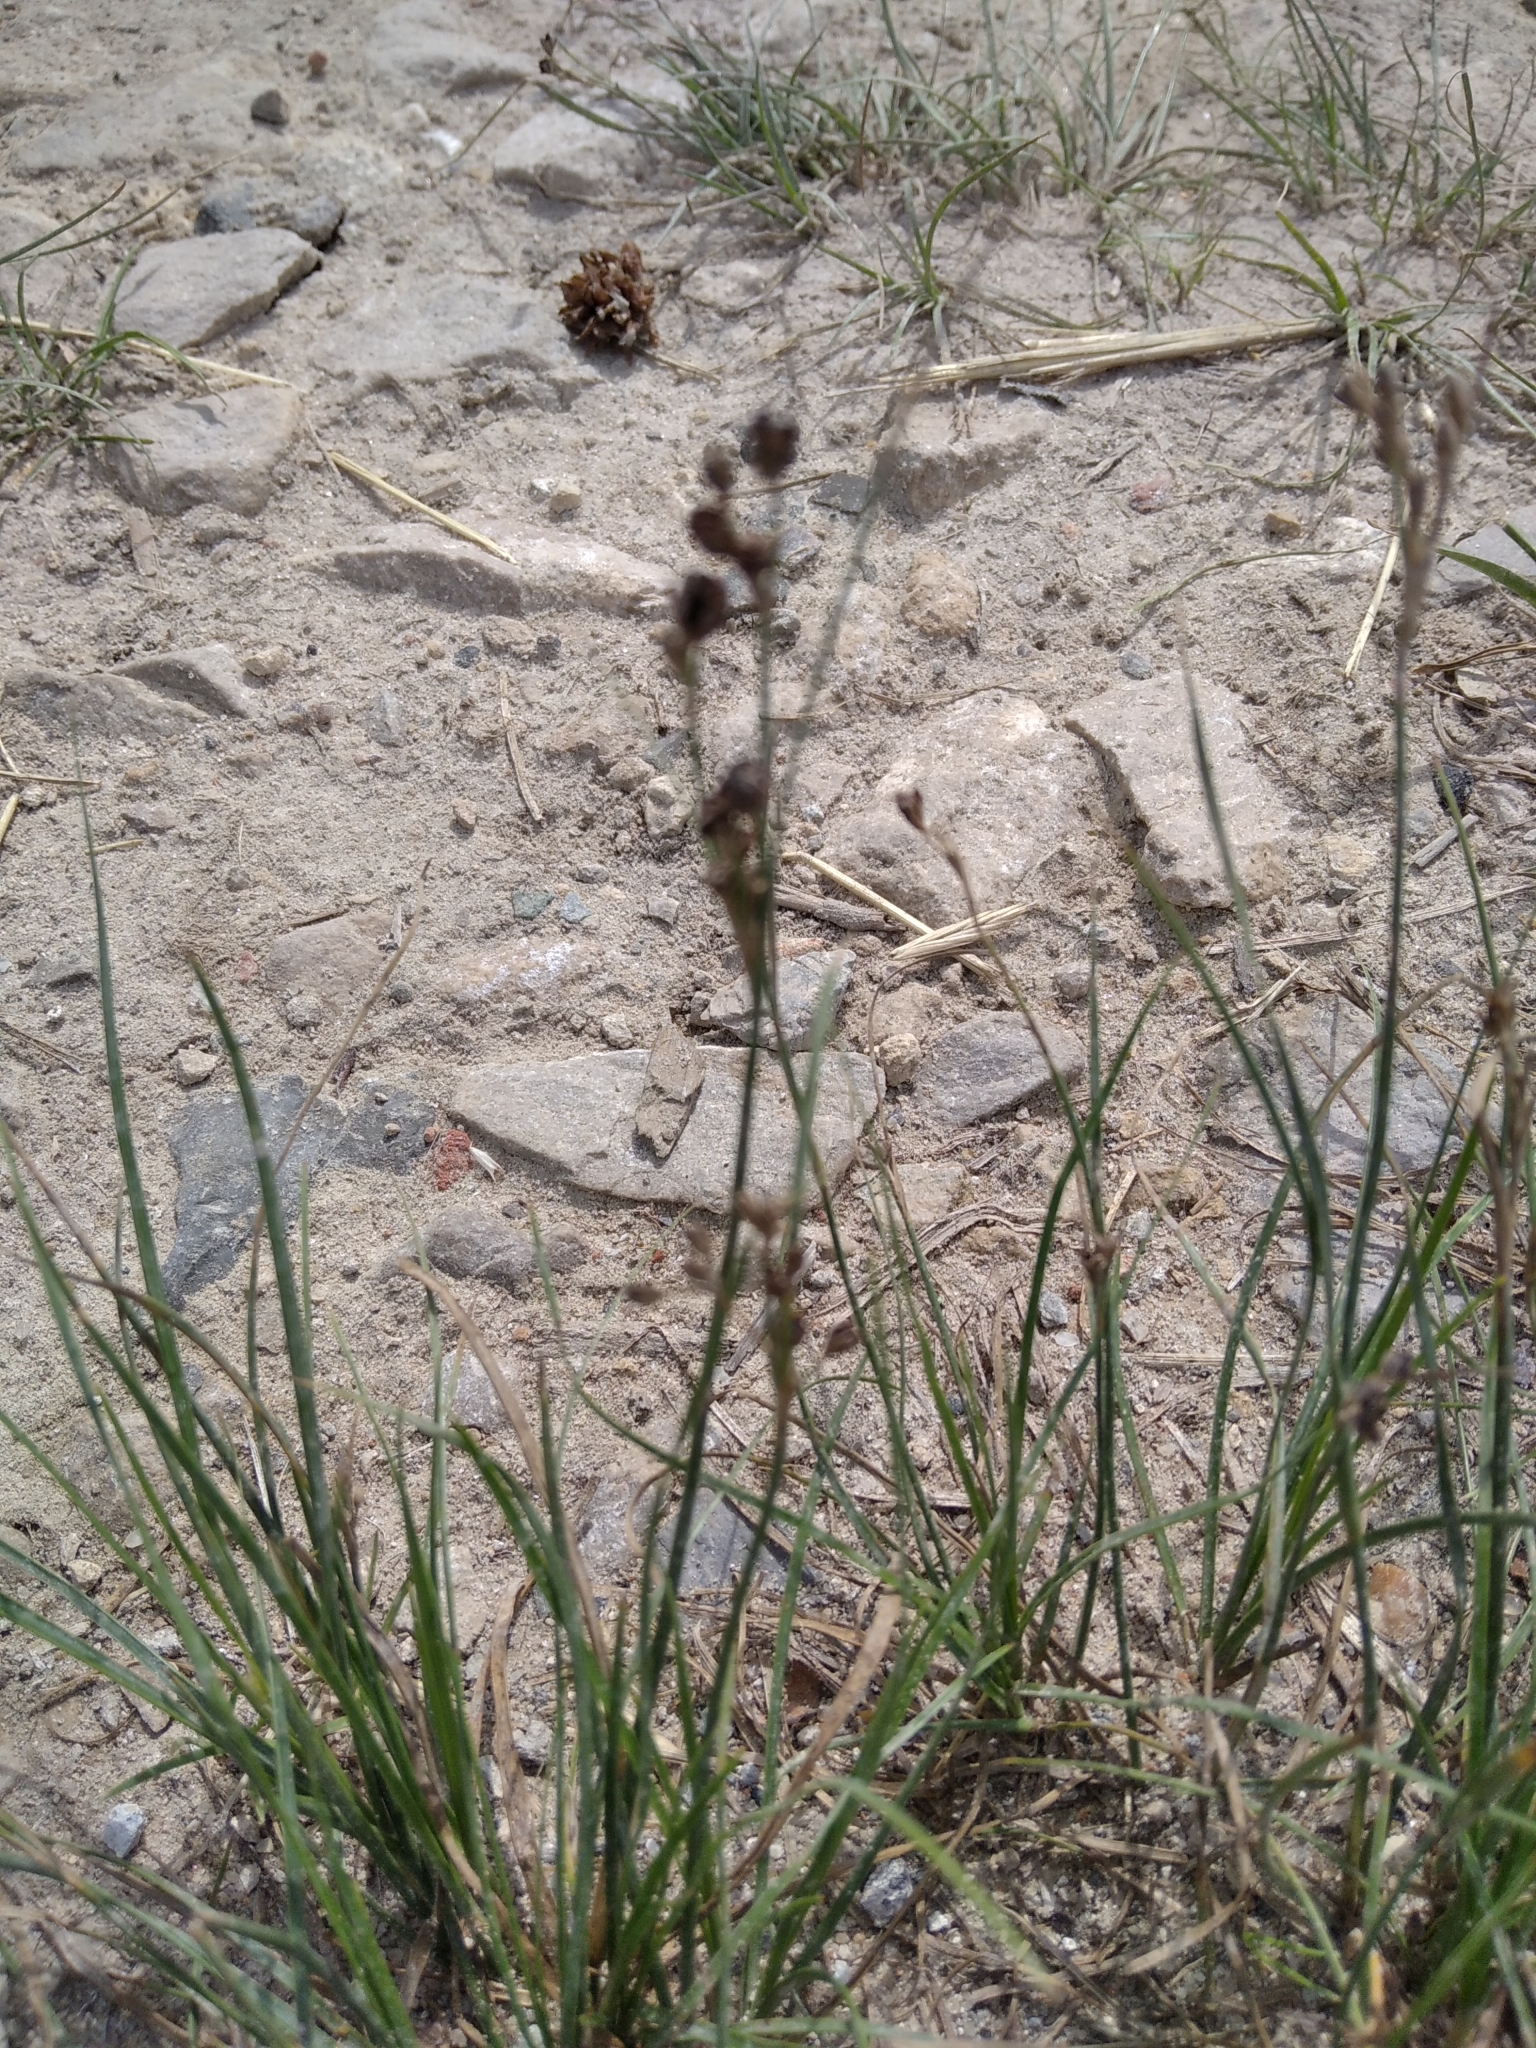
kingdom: Plantae
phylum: Tracheophyta
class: Liliopsida
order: Poales
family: Juncaceae
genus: Juncus
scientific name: Juncus compressus
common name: Round-fruited rush
